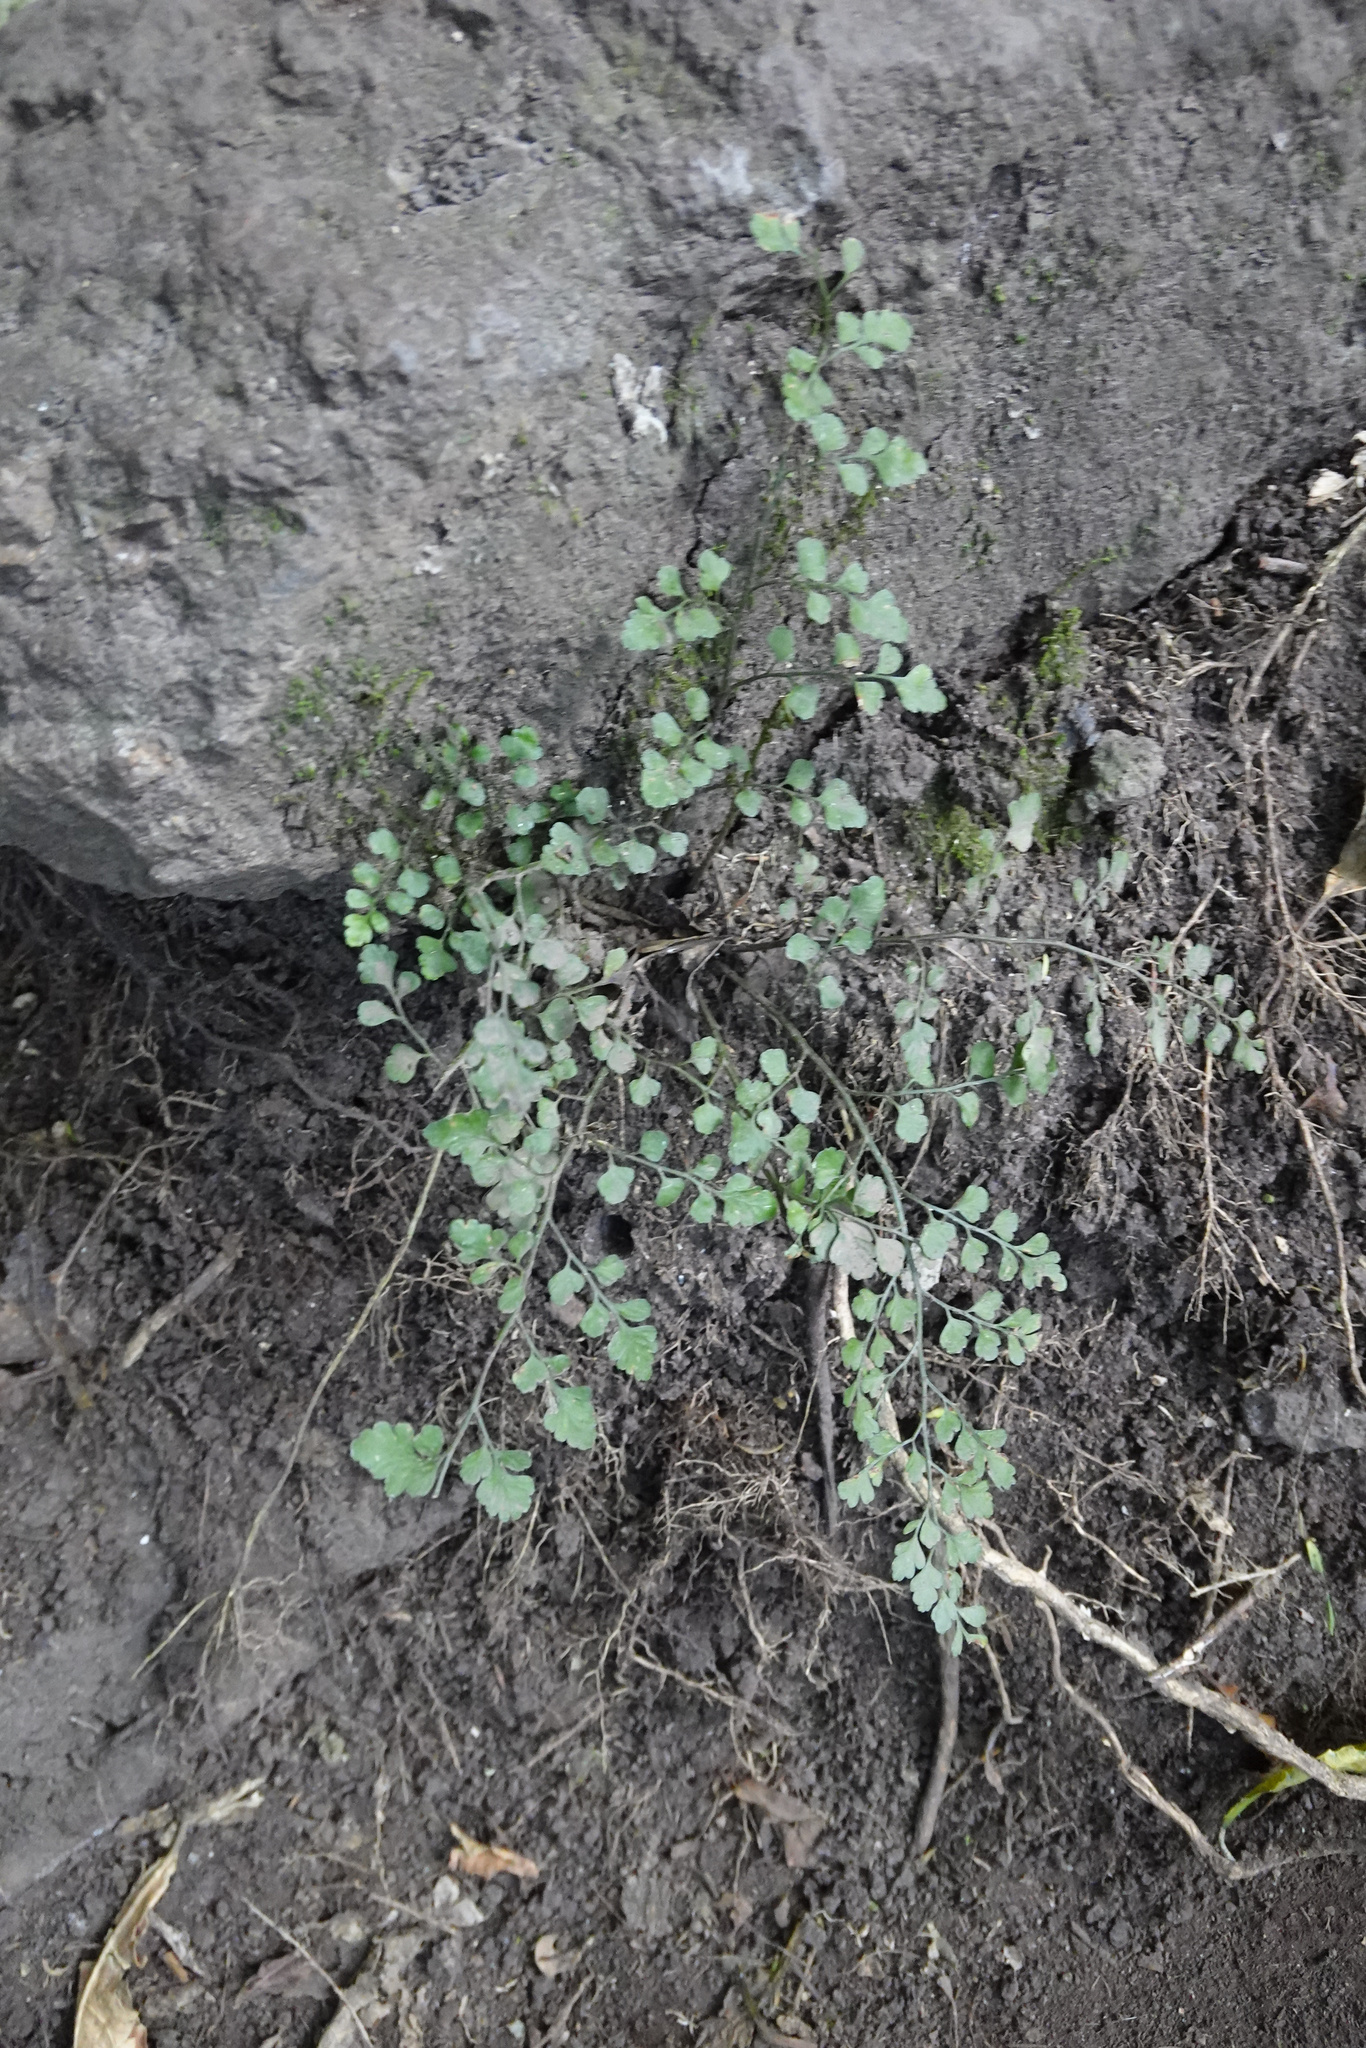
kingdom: Plantae
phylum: Tracheophyta
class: Polypodiopsida
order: Polypodiales
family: Aspleniaceae
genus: Asplenium
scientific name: Asplenium hookerianum
